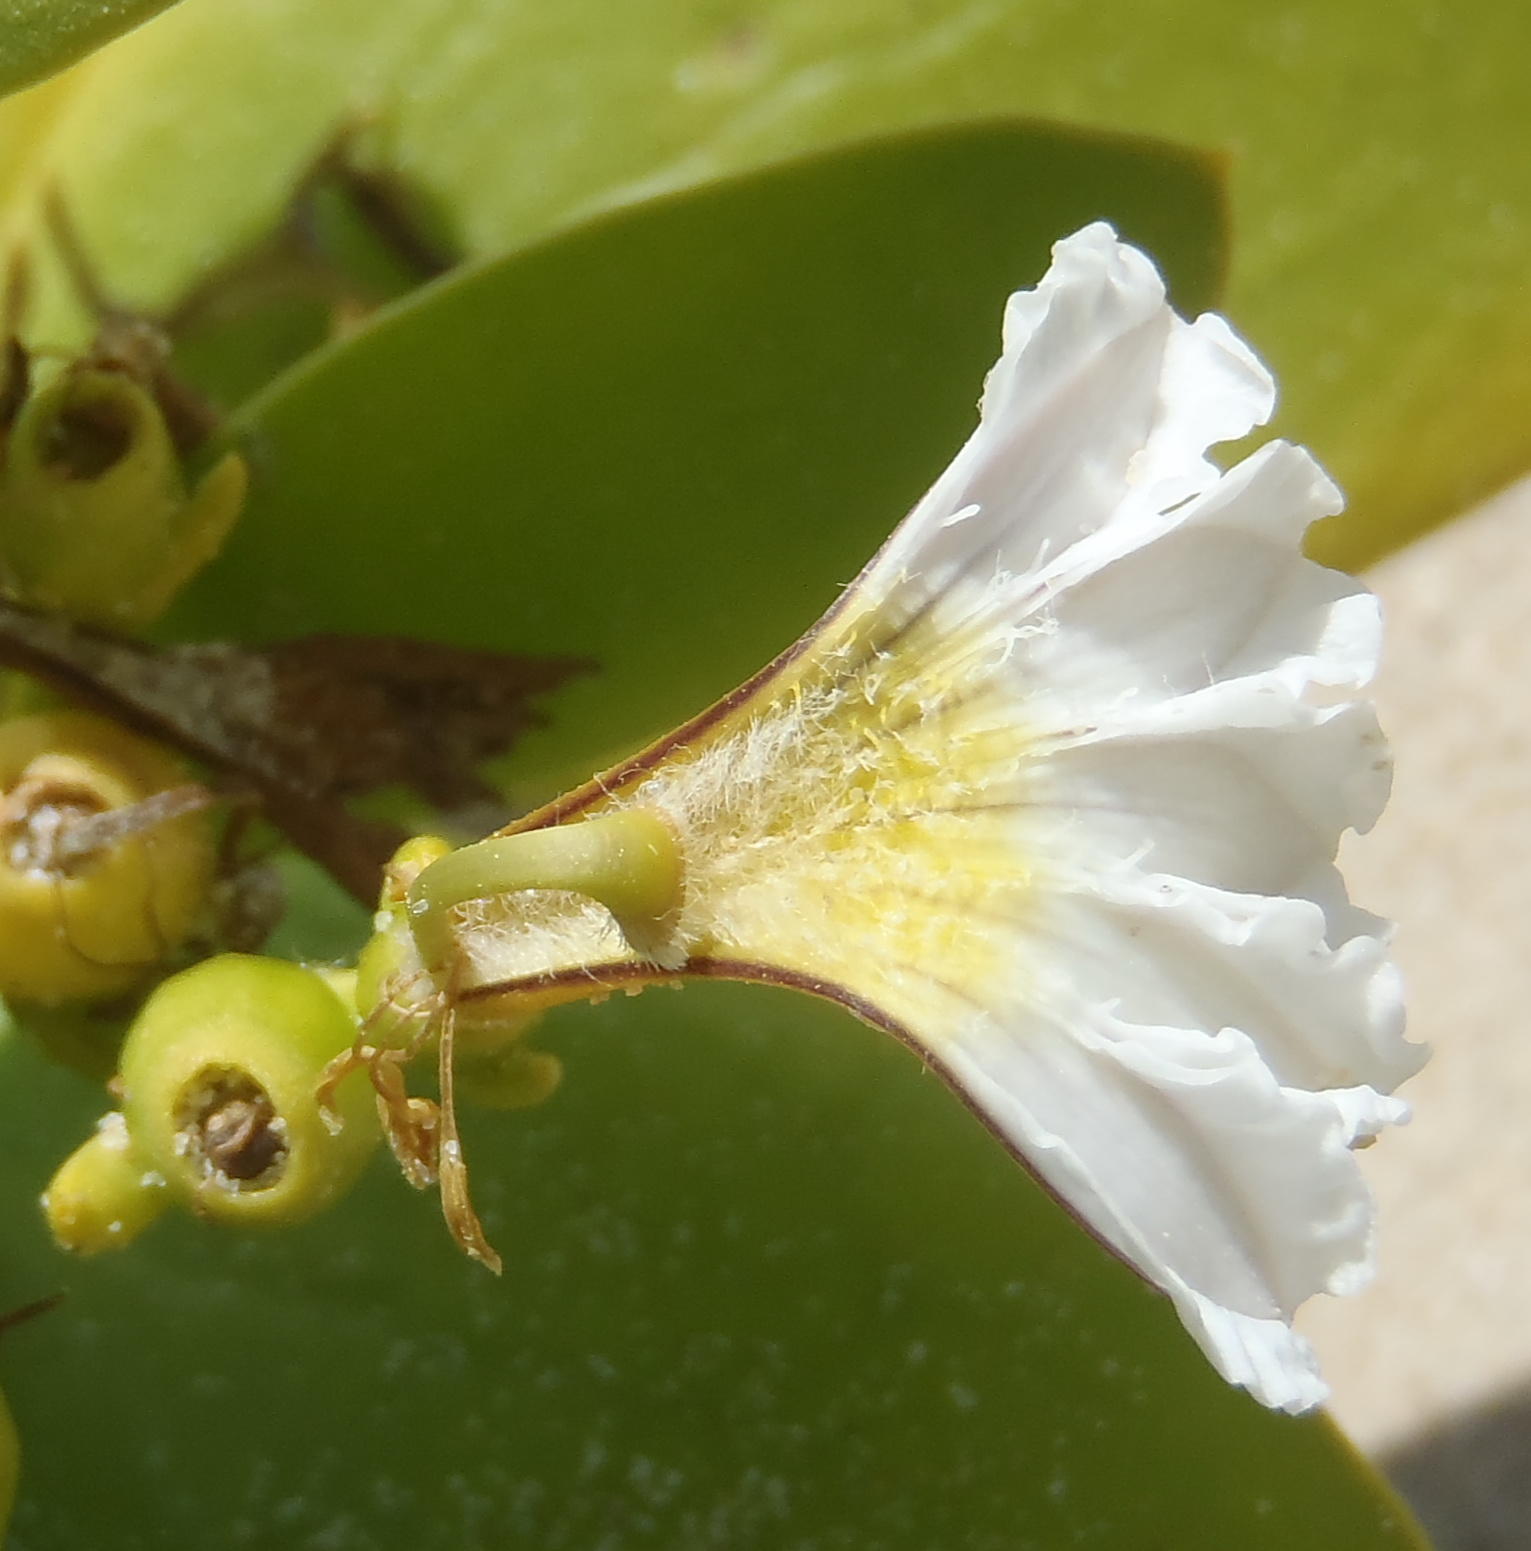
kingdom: Plantae
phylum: Tracheophyta
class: Magnoliopsida
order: Asterales
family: Goodeniaceae
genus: Scaevola
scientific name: Scaevola plumieri
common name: Gull feed
